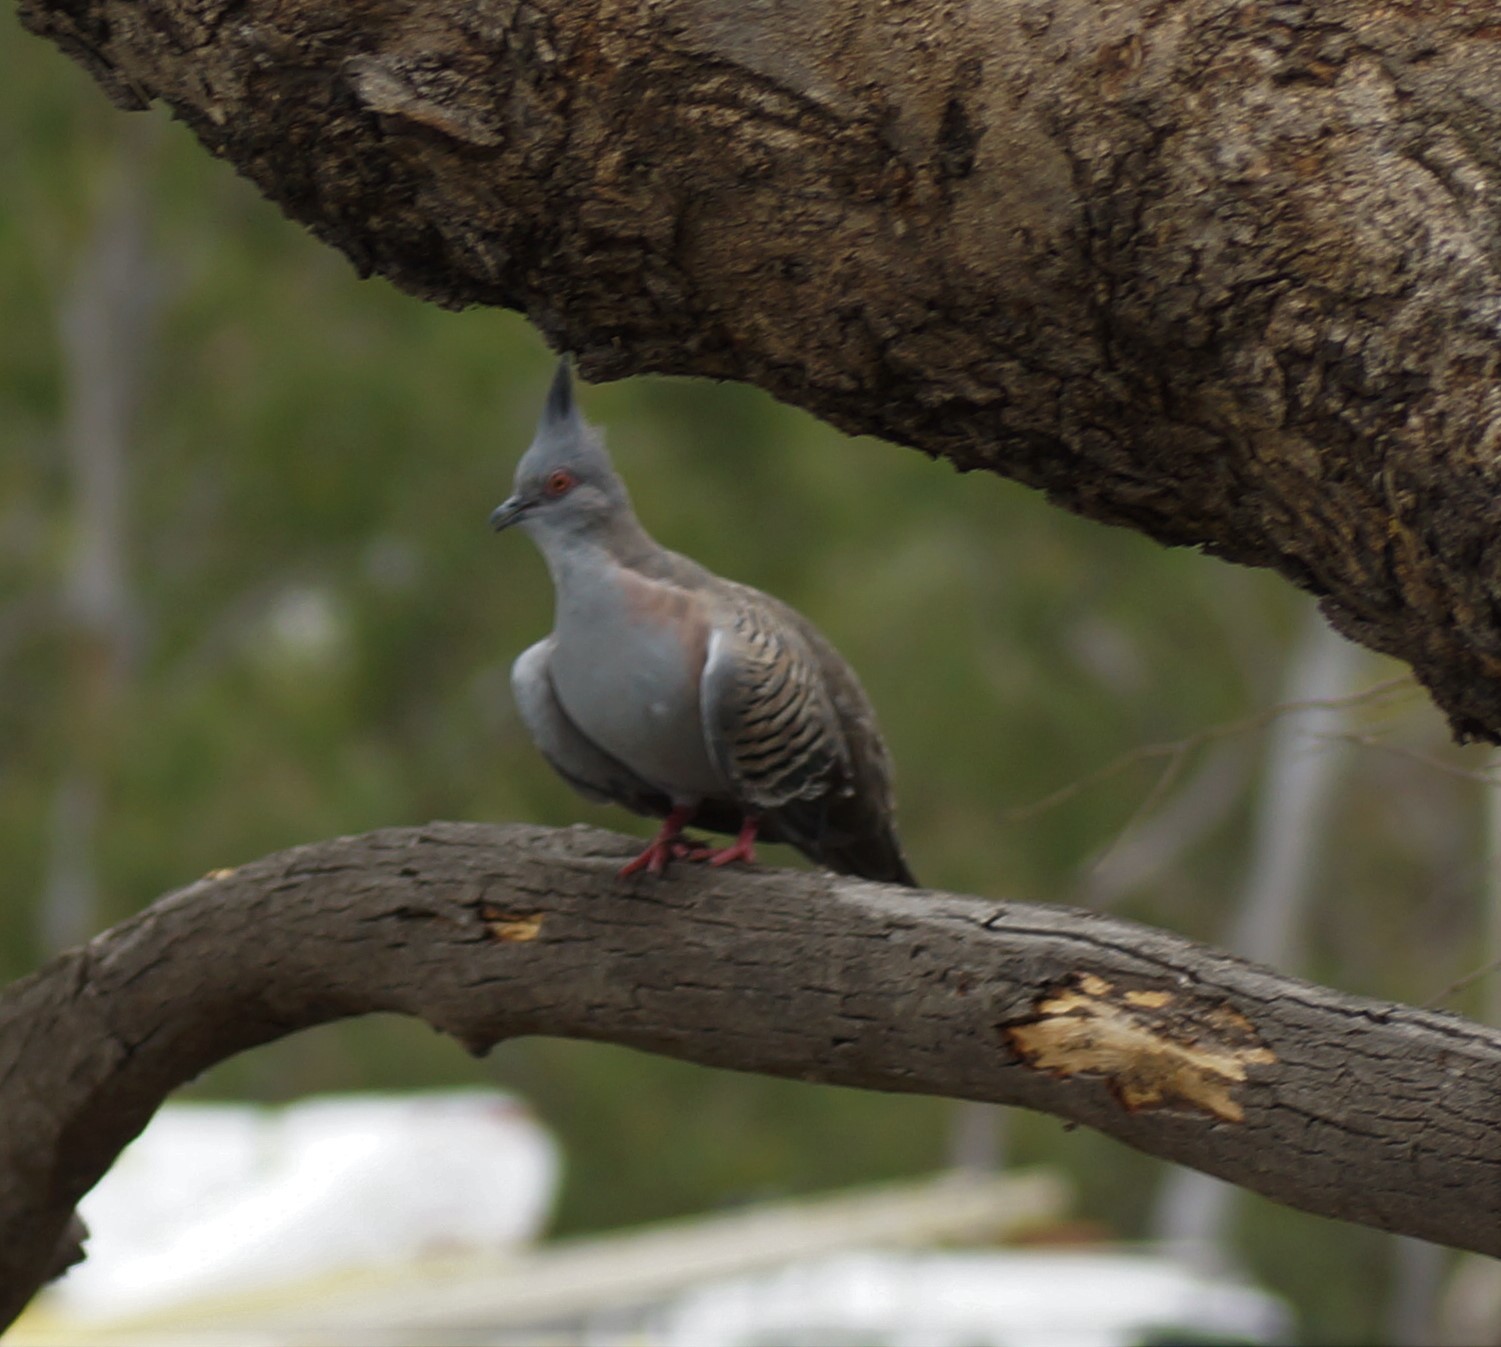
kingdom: Animalia
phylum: Chordata
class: Aves
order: Columbiformes
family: Columbidae
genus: Ocyphaps
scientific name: Ocyphaps lophotes
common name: Crested pigeon
